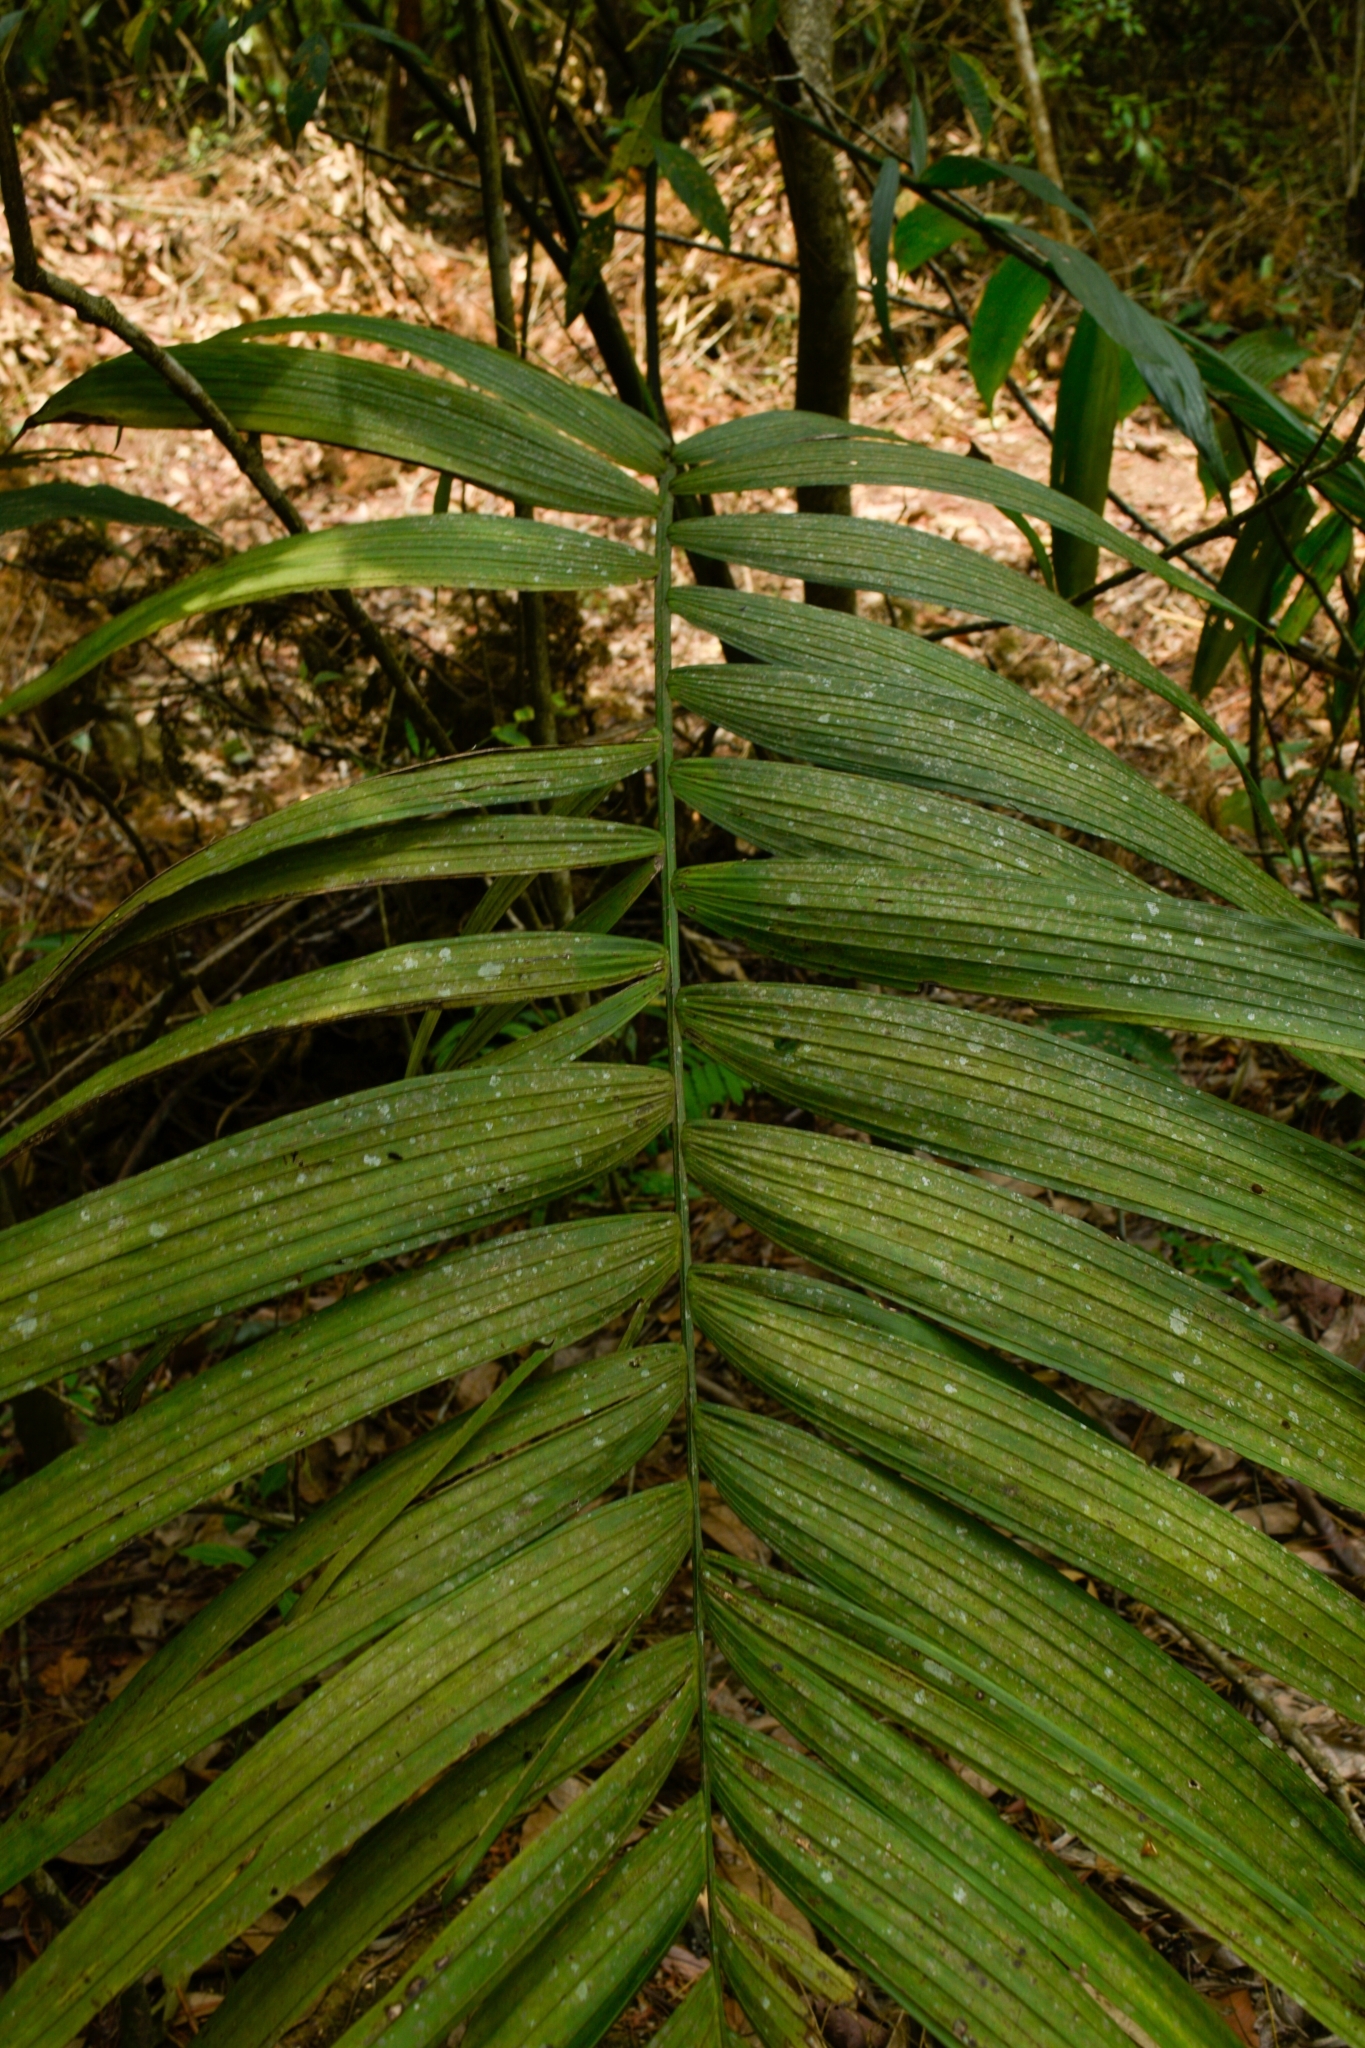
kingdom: Plantae
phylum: Tracheophyta
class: Liliopsida
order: Arecales
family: Arecaceae
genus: Chamaedorea
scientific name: Chamaedorea tepejilote
